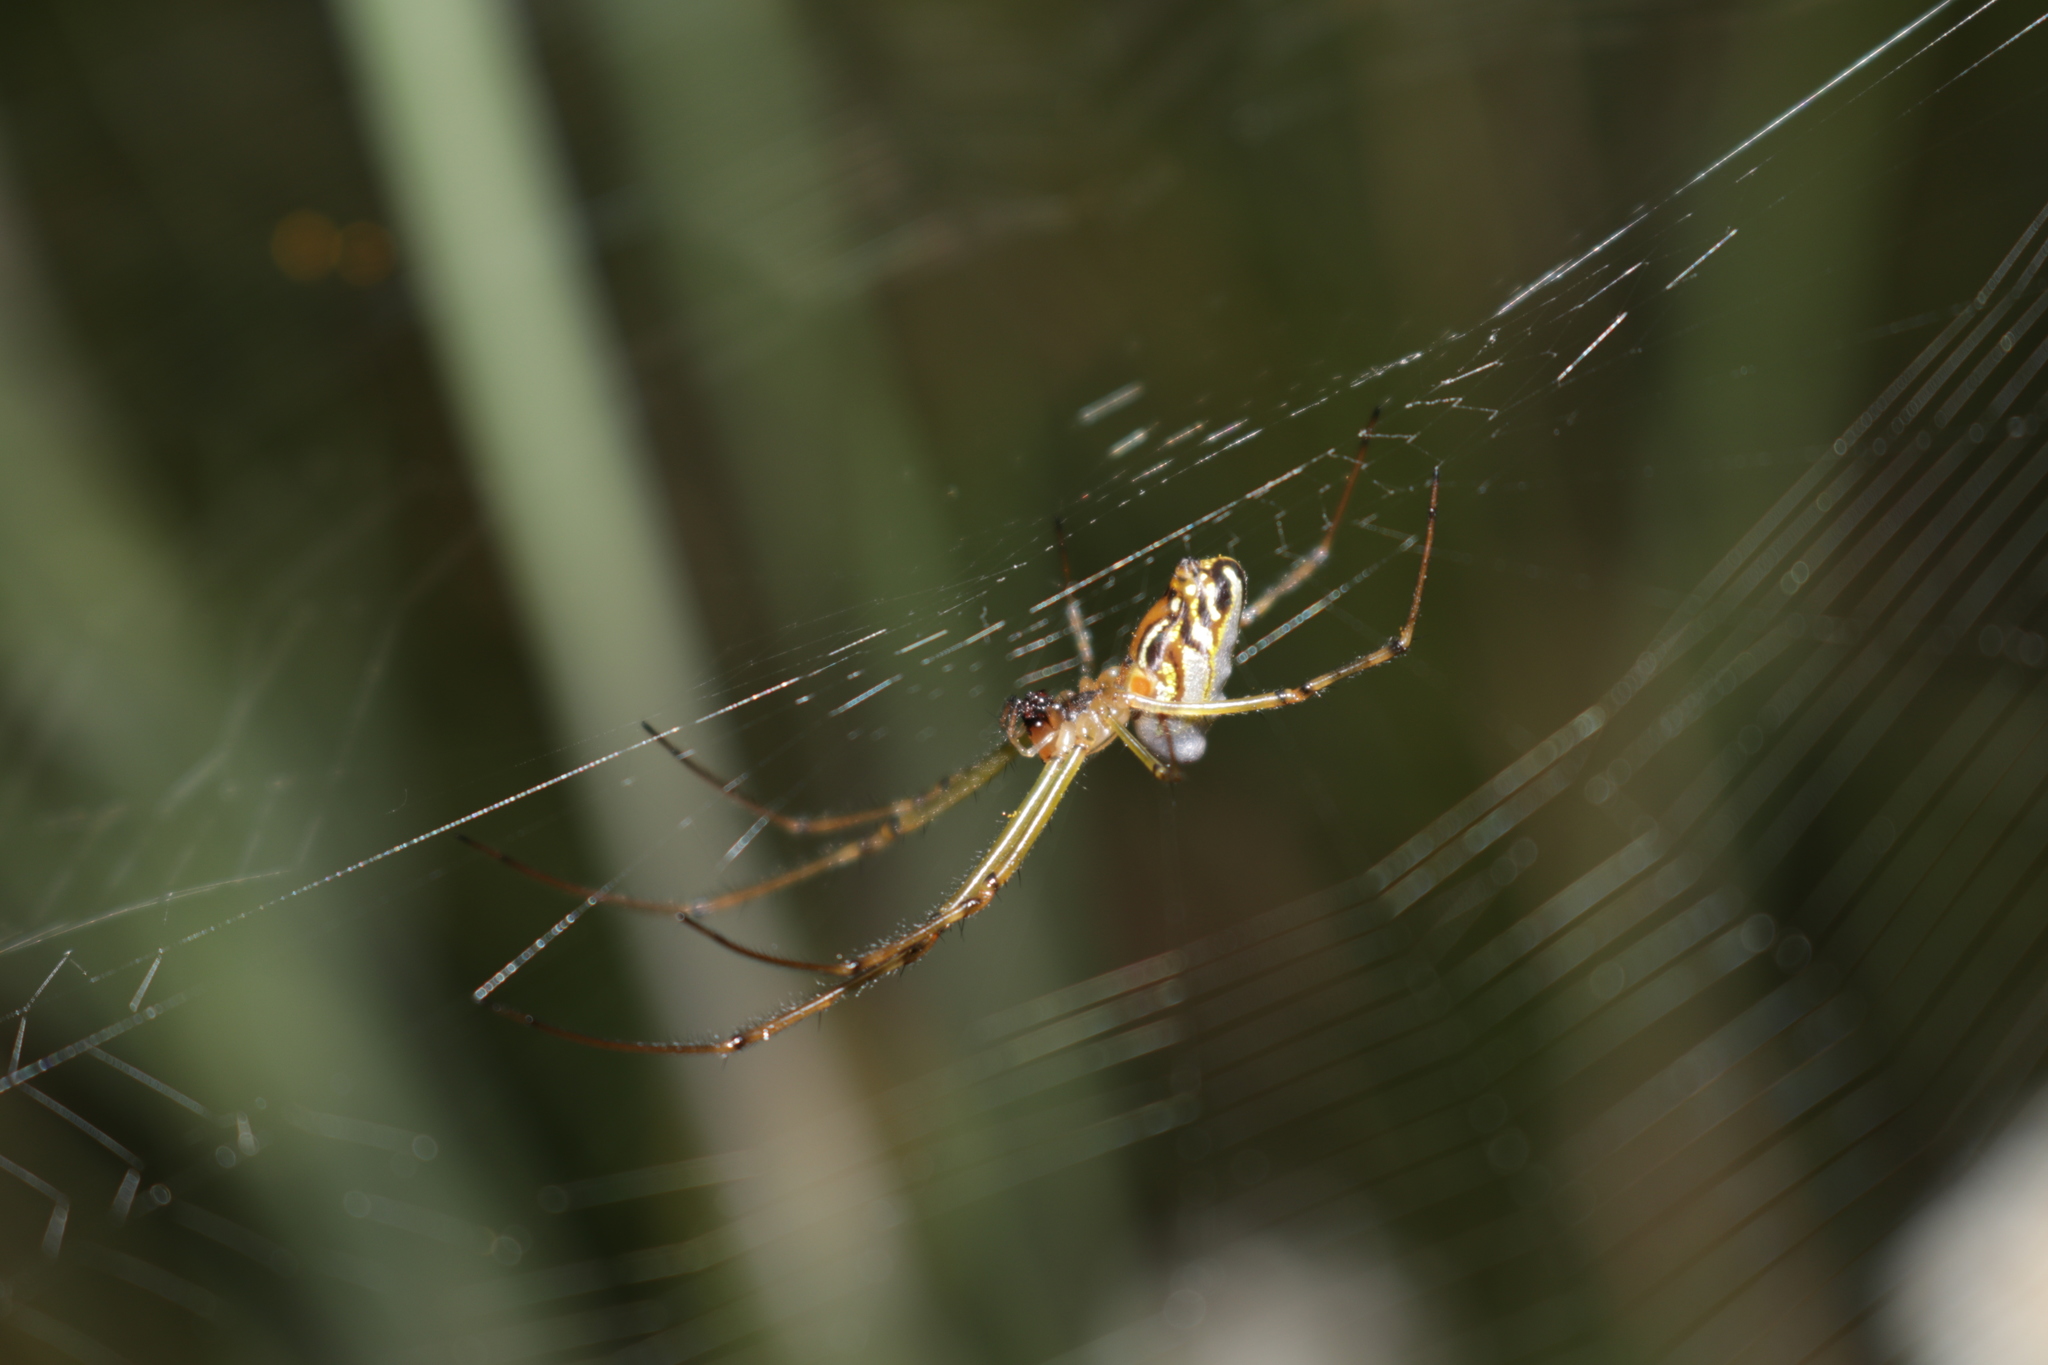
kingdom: Animalia
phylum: Arthropoda
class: Arachnida
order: Araneae
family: Tetragnathidae
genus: Leucauge
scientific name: Leucauge dromedaria
